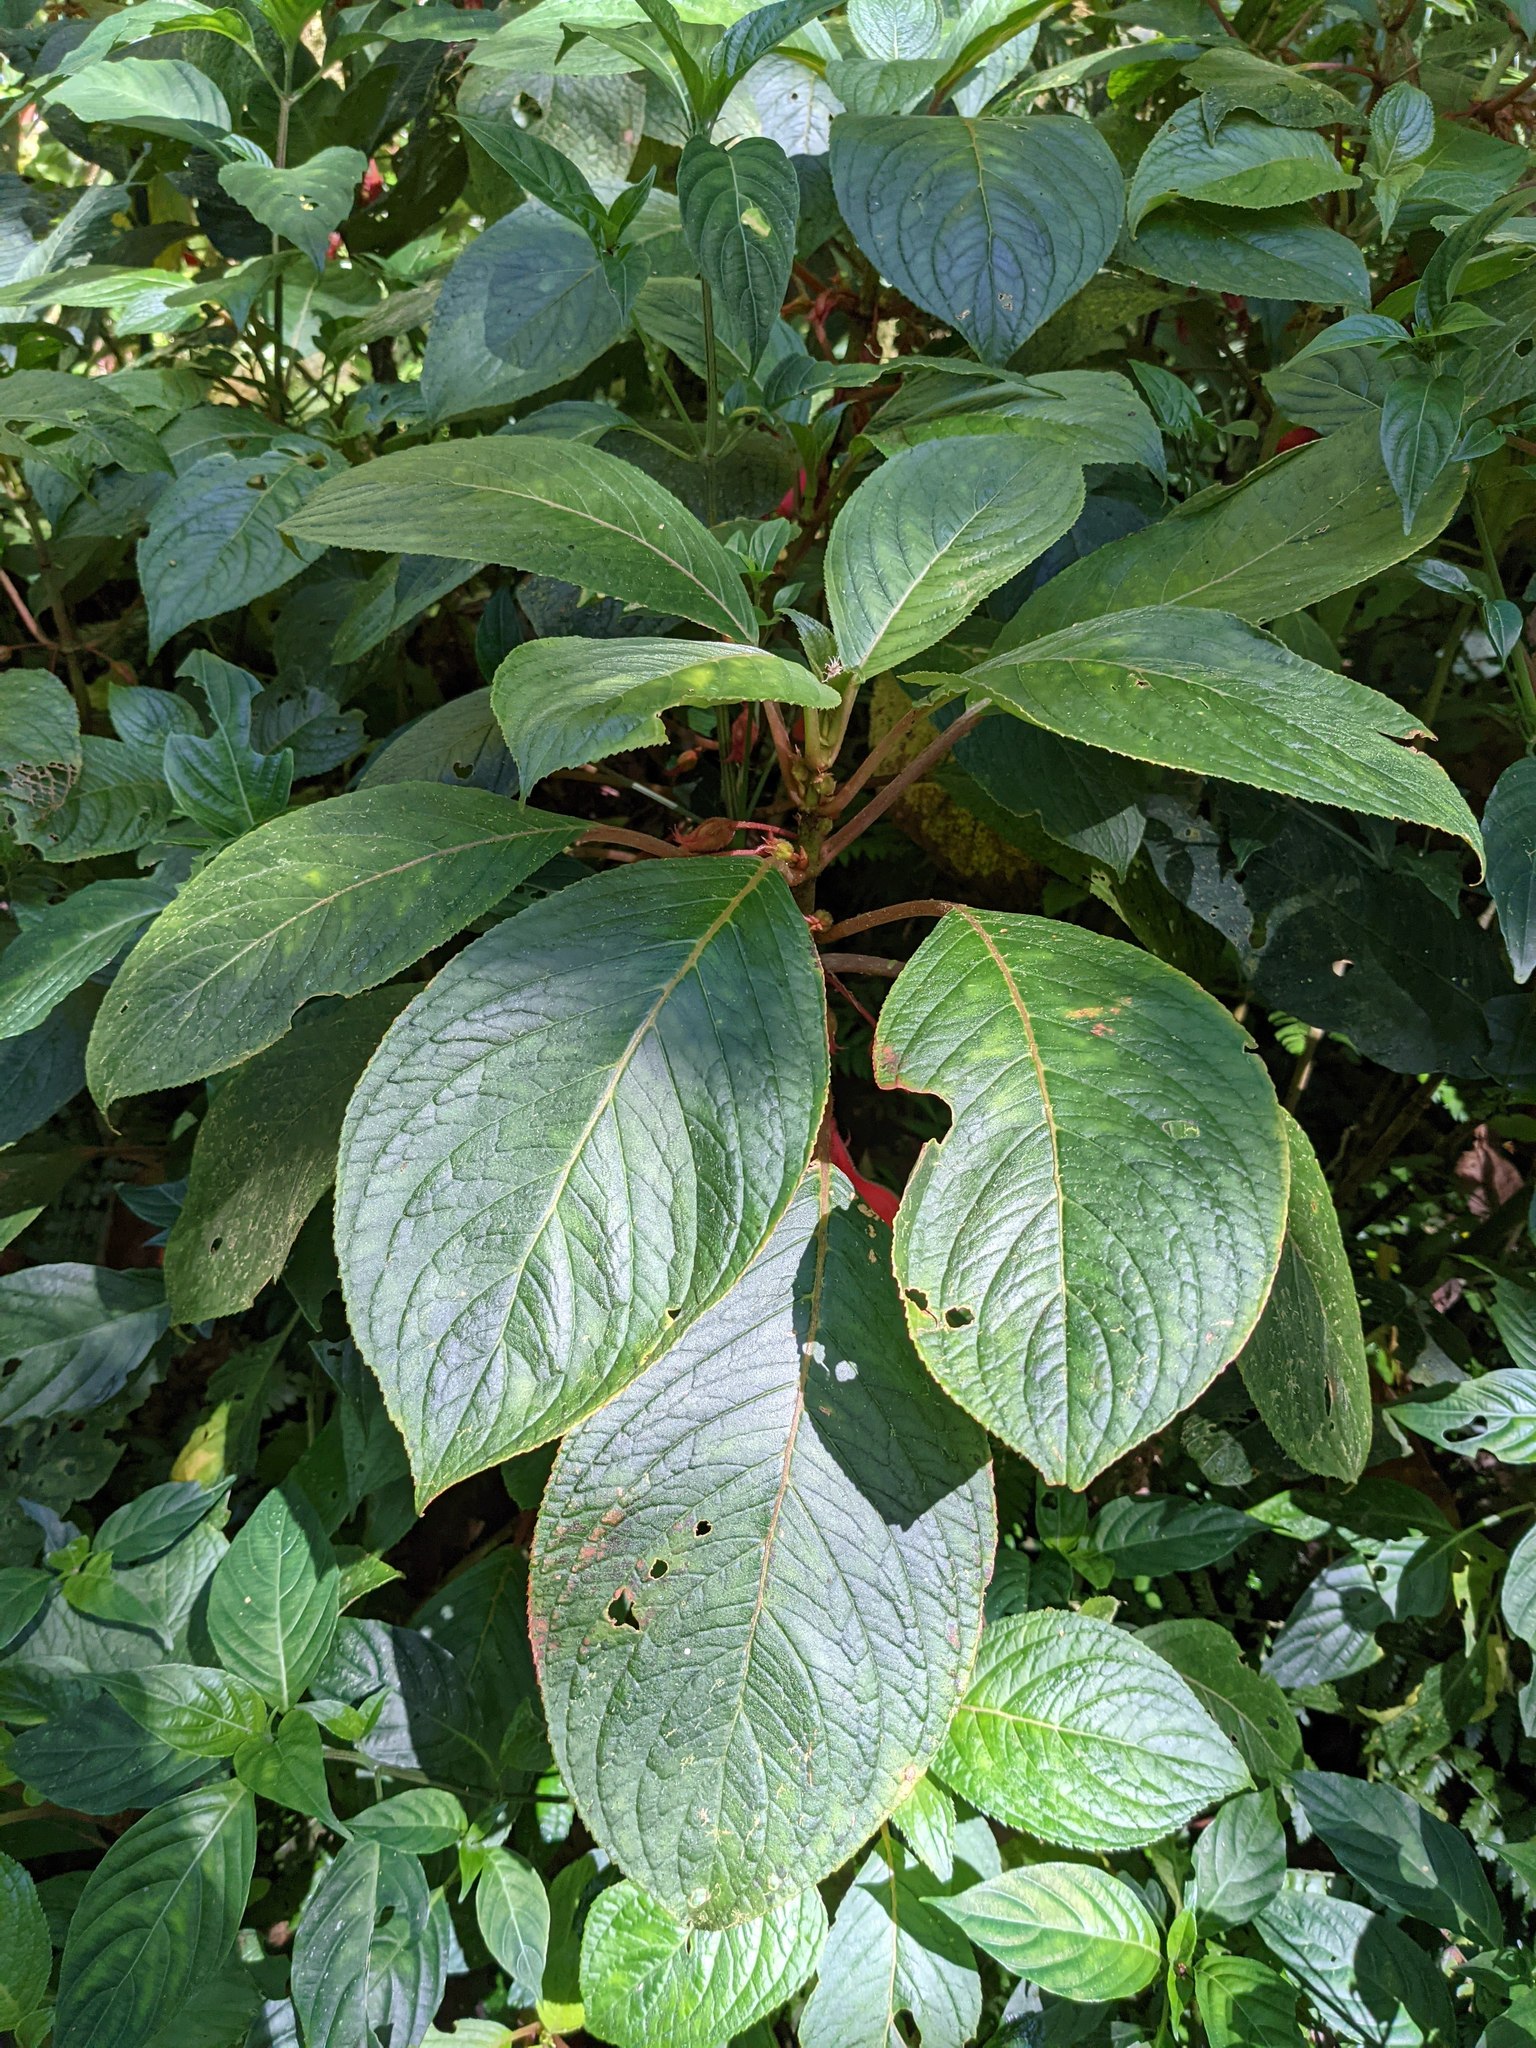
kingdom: Plantae
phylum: Tracheophyta
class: Magnoliopsida
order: Lamiales
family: Gesneriaceae
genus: Glossoloma
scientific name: Glossoloma tetragonum
